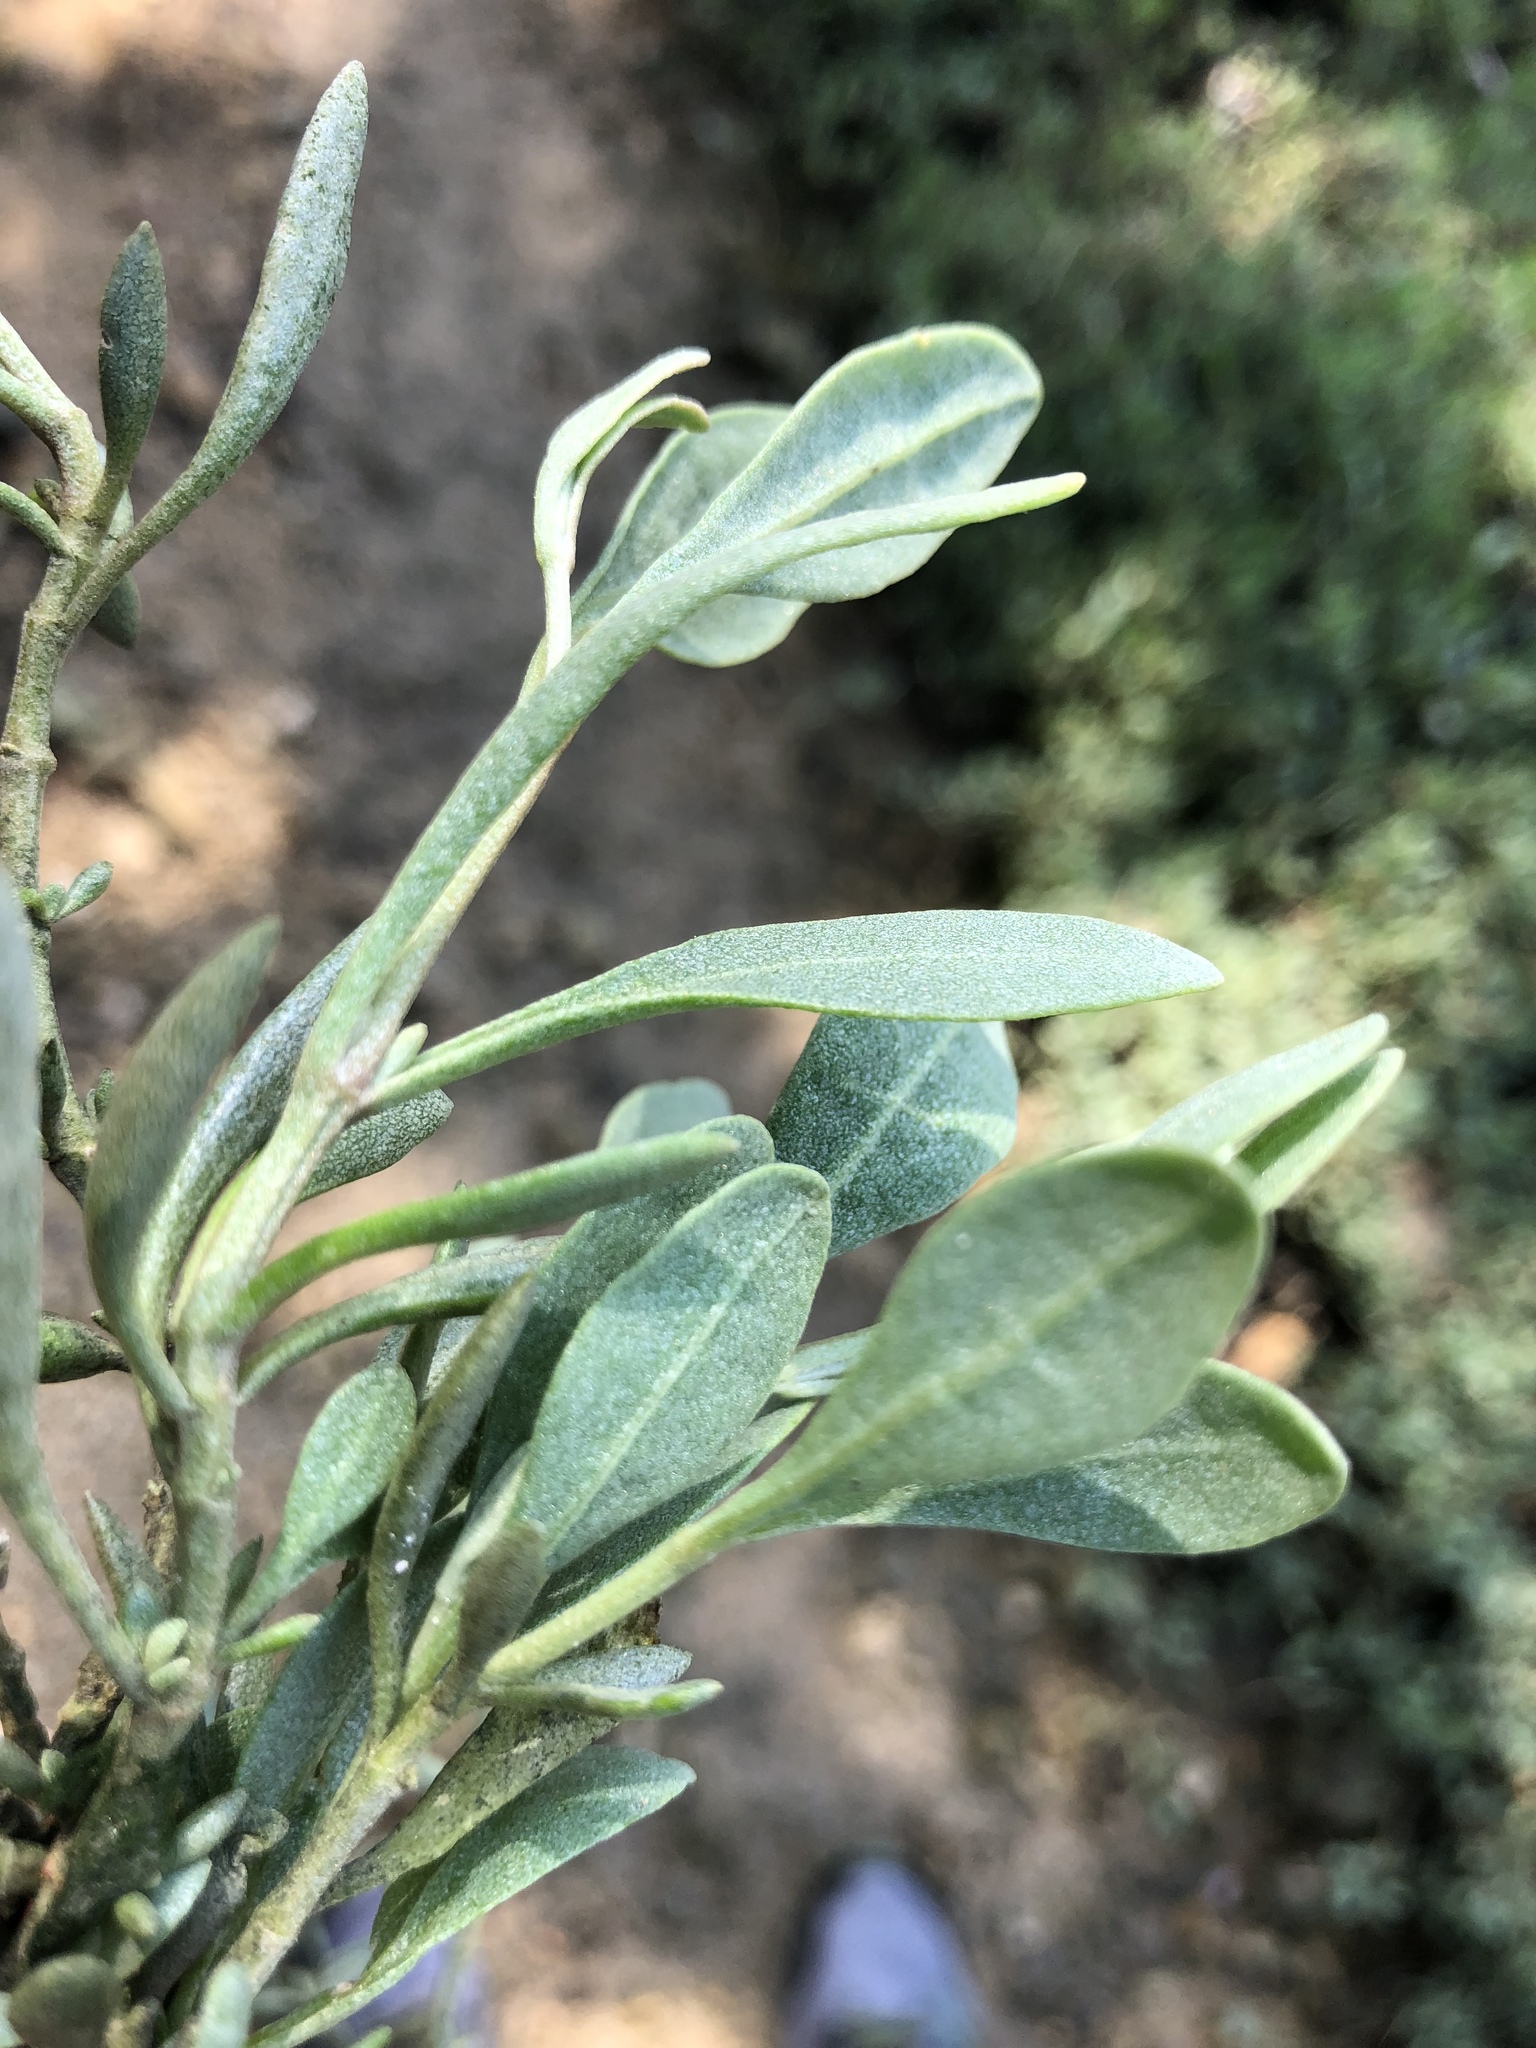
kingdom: Plantae
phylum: Tracheophyta
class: Magnoliopsida
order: Caryophyllales
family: Amaranthaceae
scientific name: Amaranthaceae
